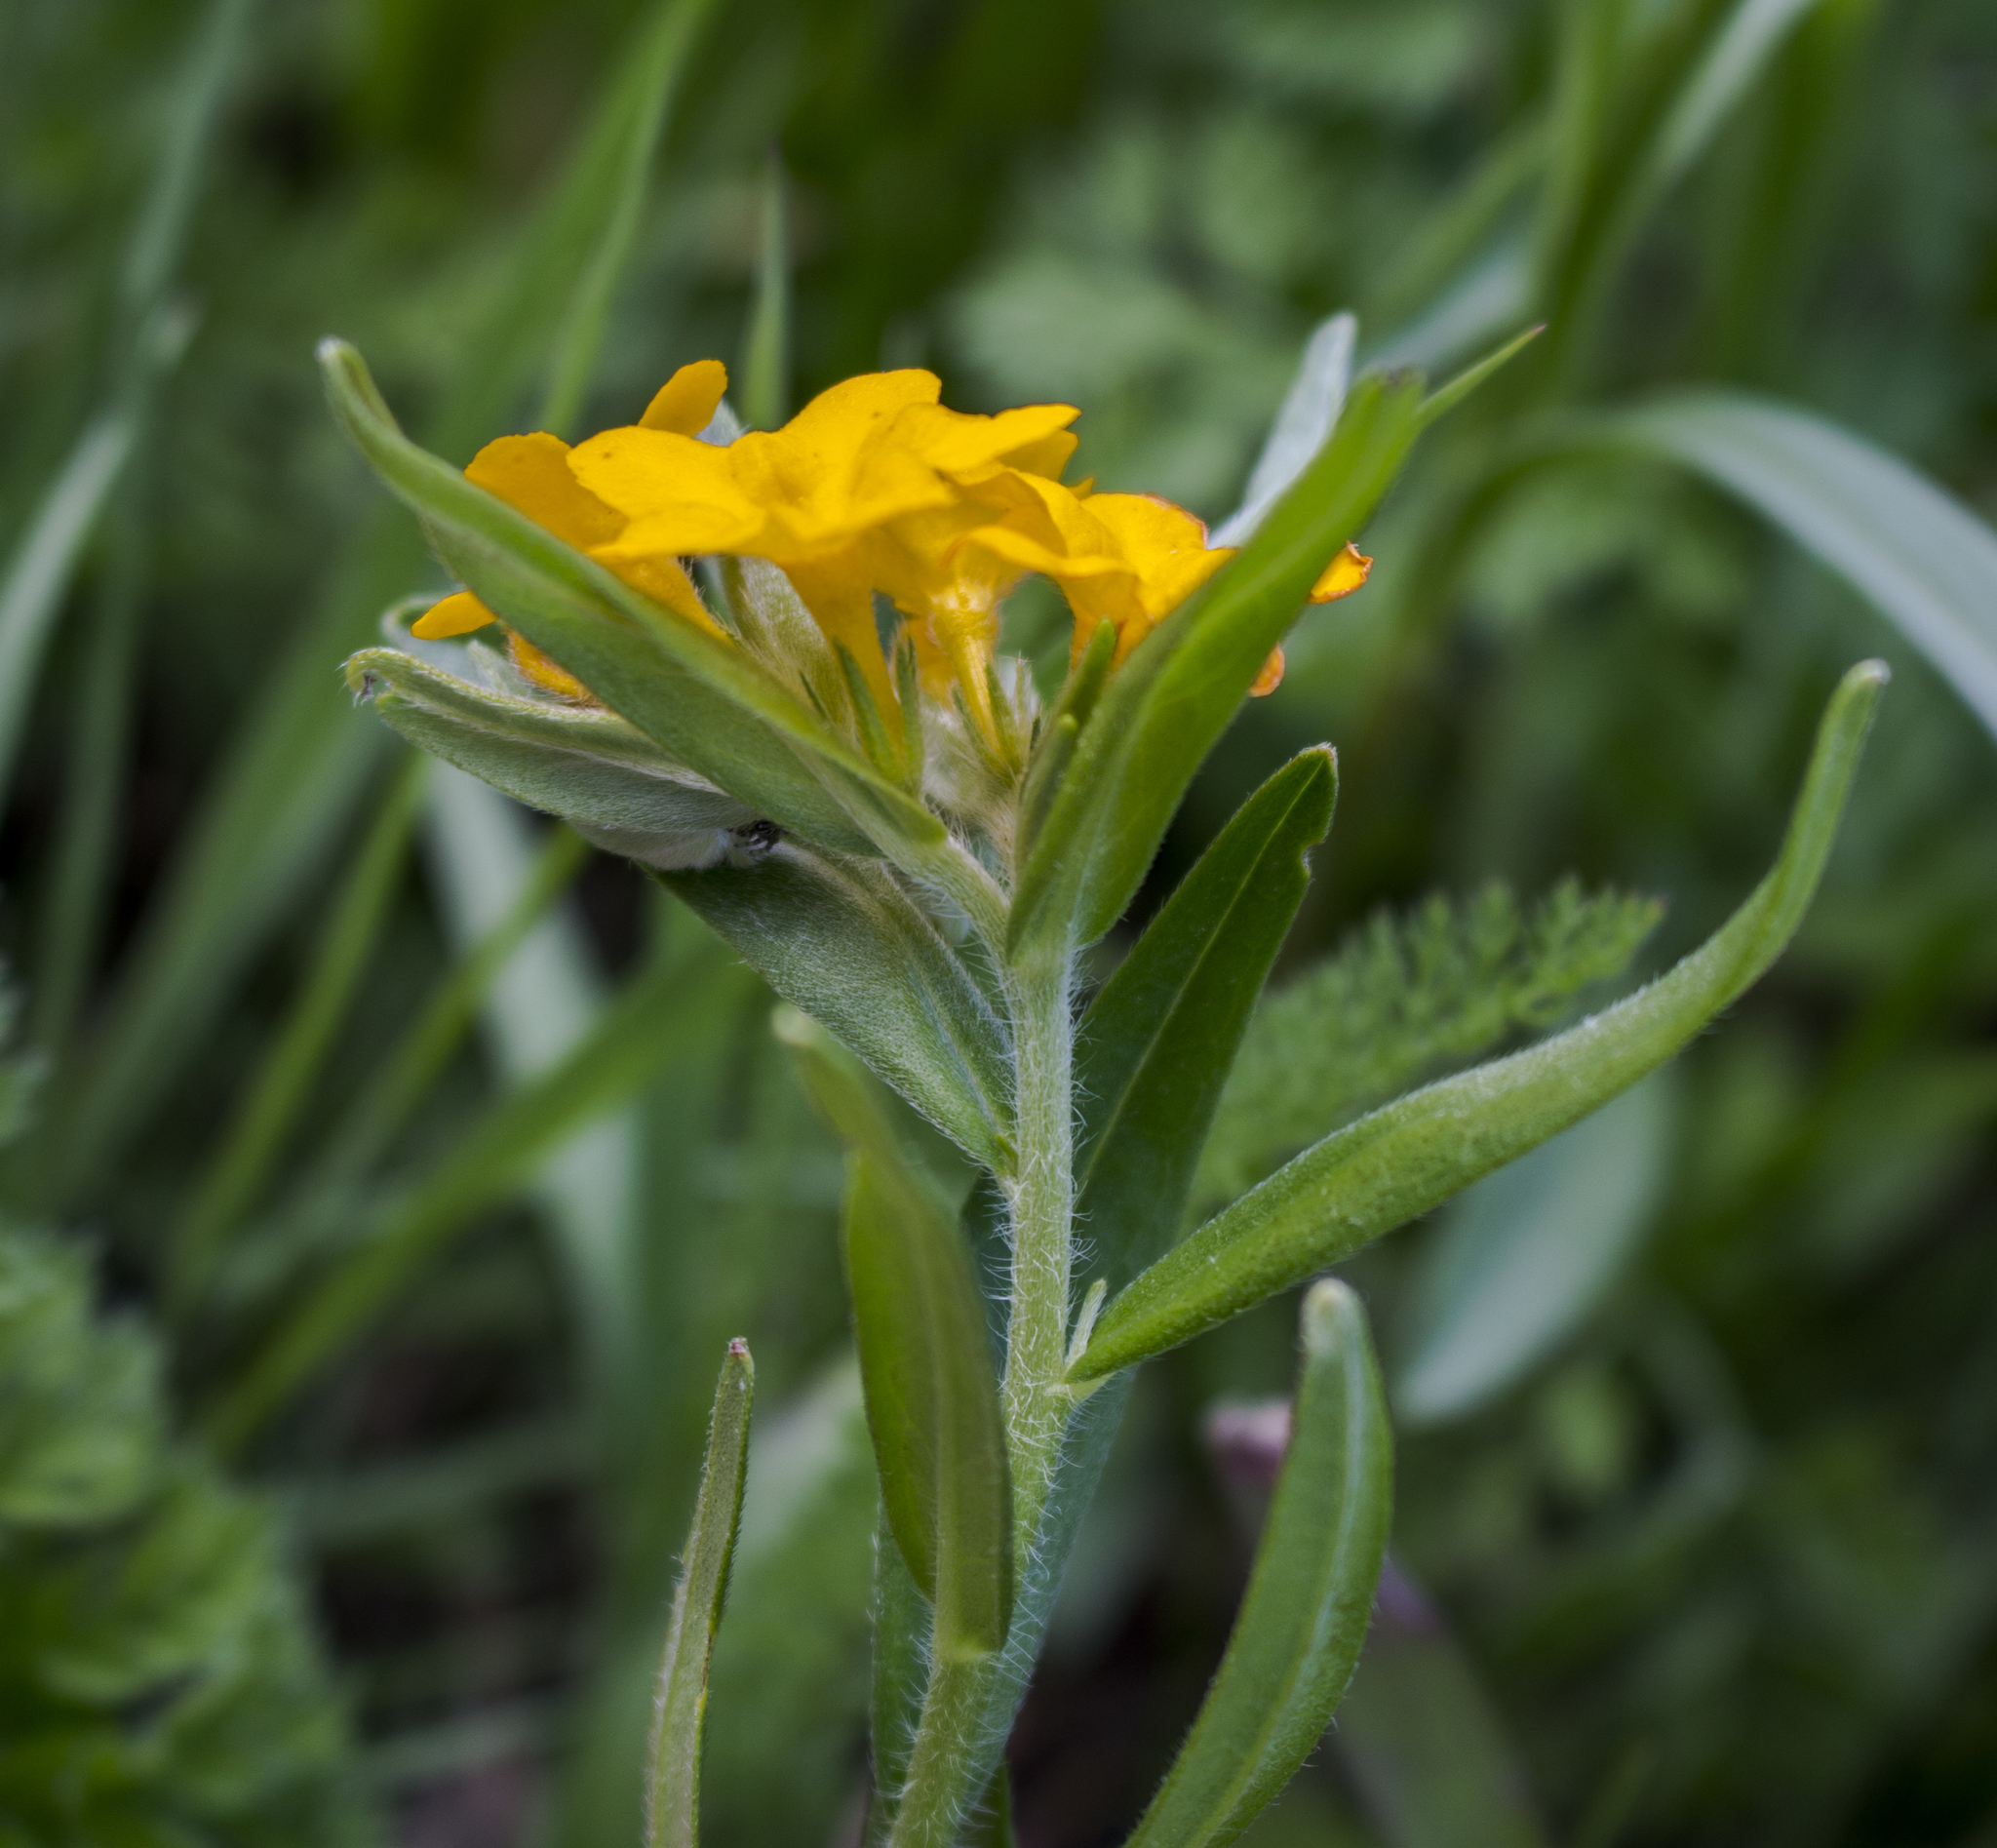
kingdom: Plantae
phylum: Tracheophyta
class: Magnoliopsida
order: Boraginales
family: Boraginaceae
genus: Lithospermum
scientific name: Lithospermum canescens
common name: Hoary puccoon
